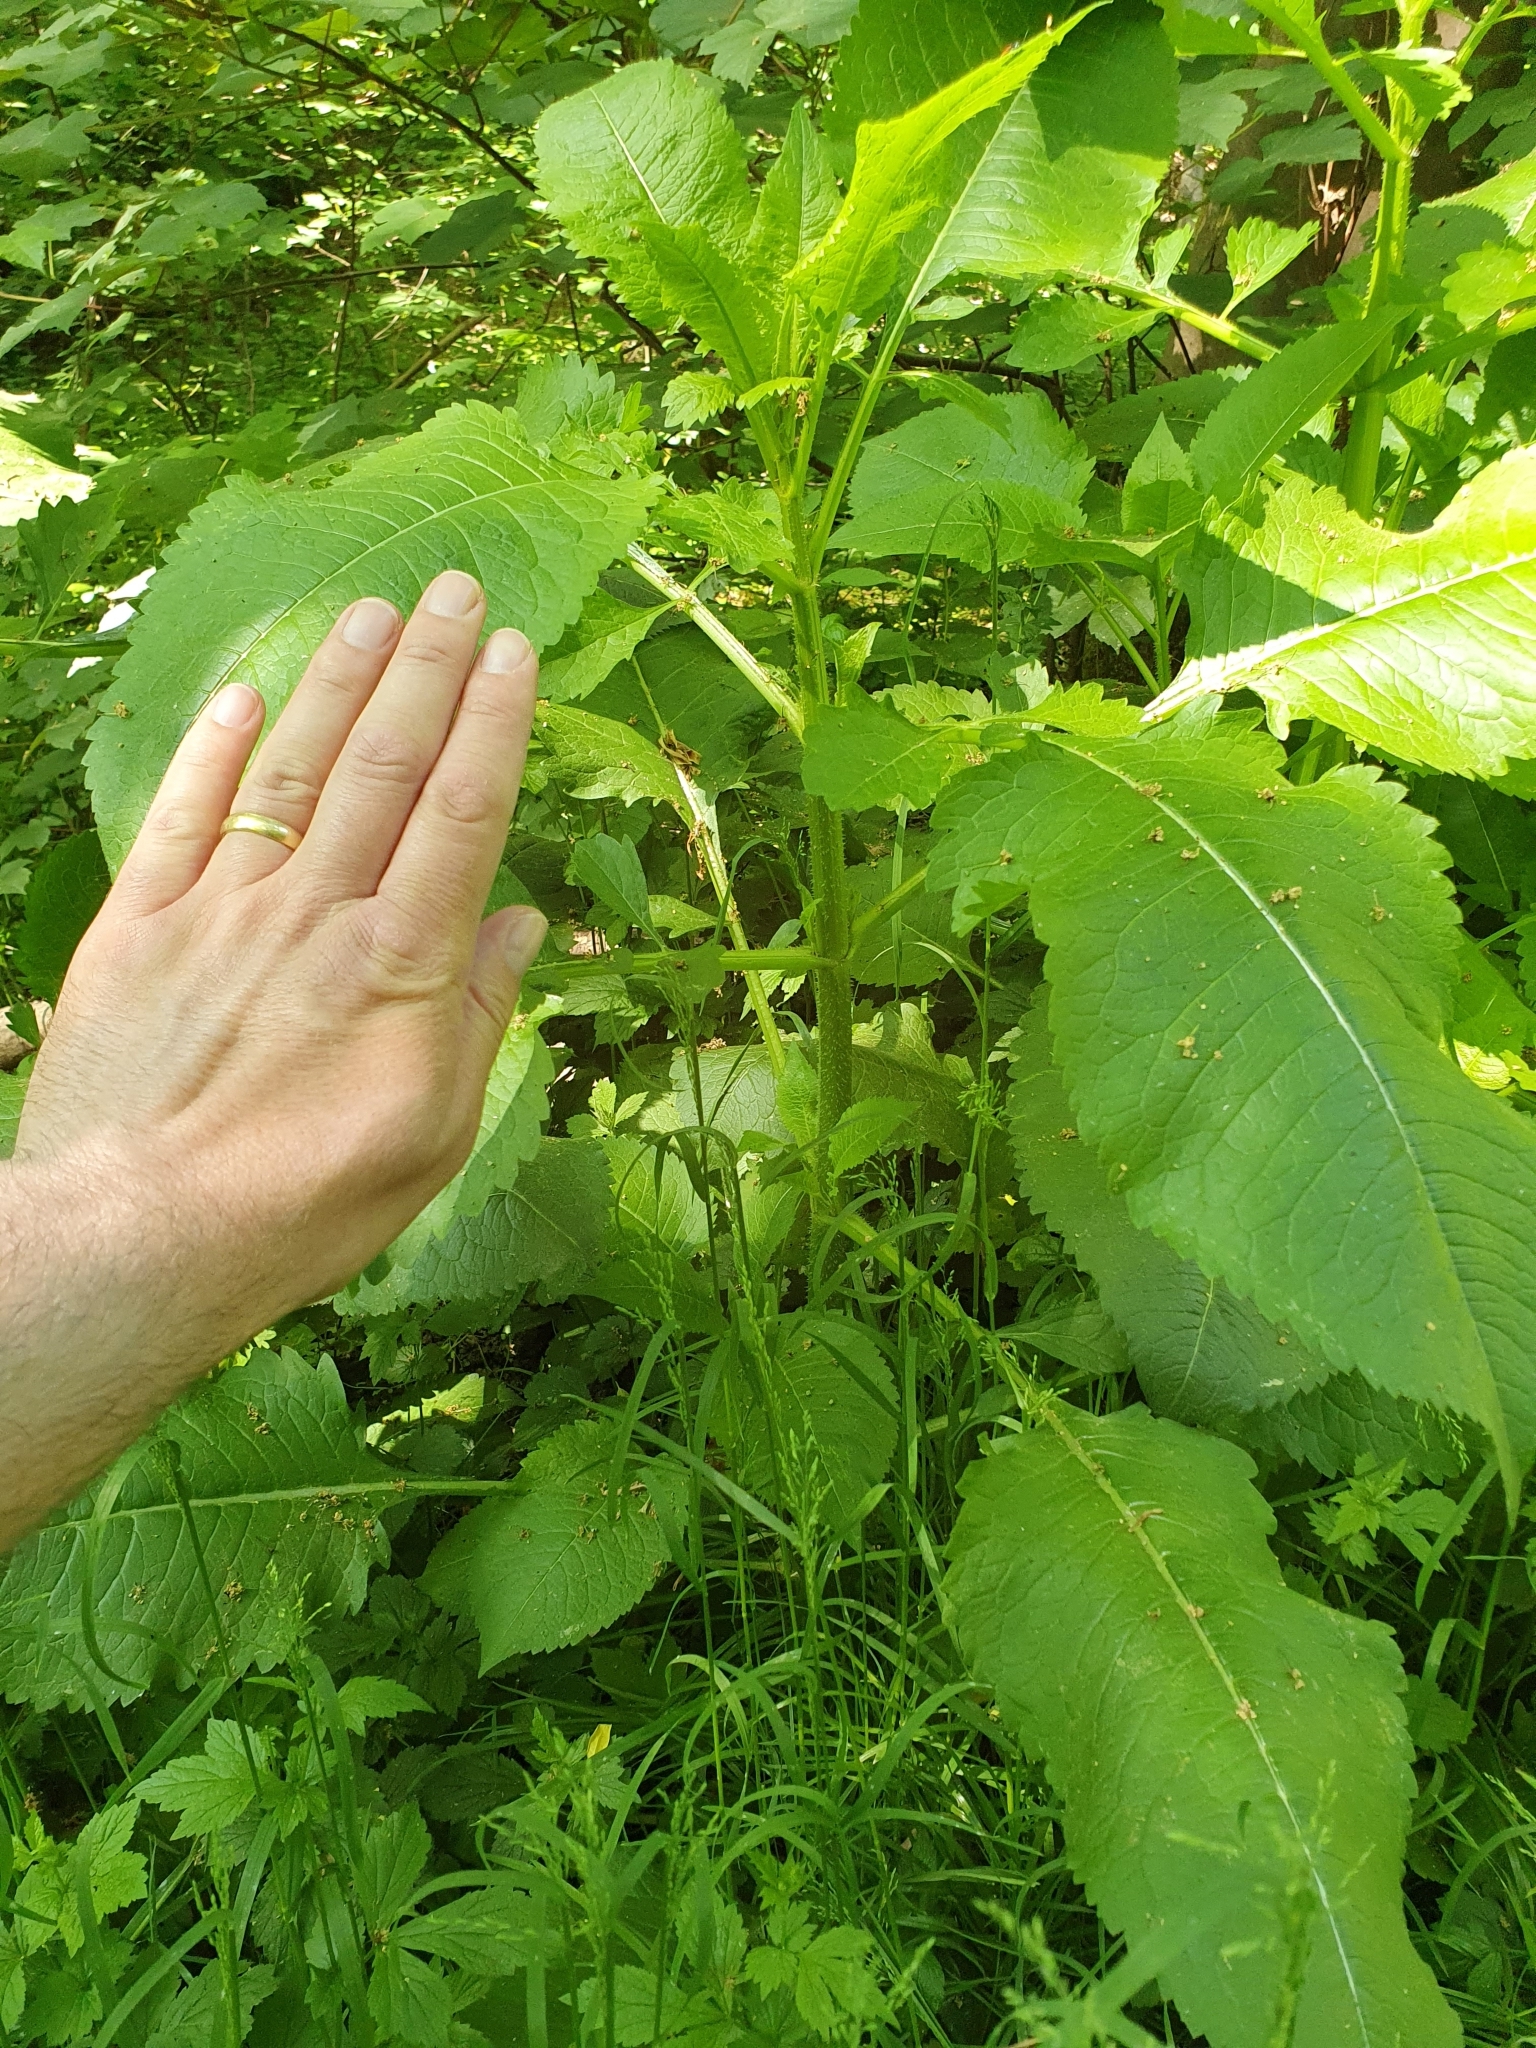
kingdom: Plantae
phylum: Tracheophyta
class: Magnoliopsida
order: Dipsacales
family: Caprifoliaceae
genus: Dipsacus
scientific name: Dipsacus strigosus
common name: Yellow-flowered teasel
